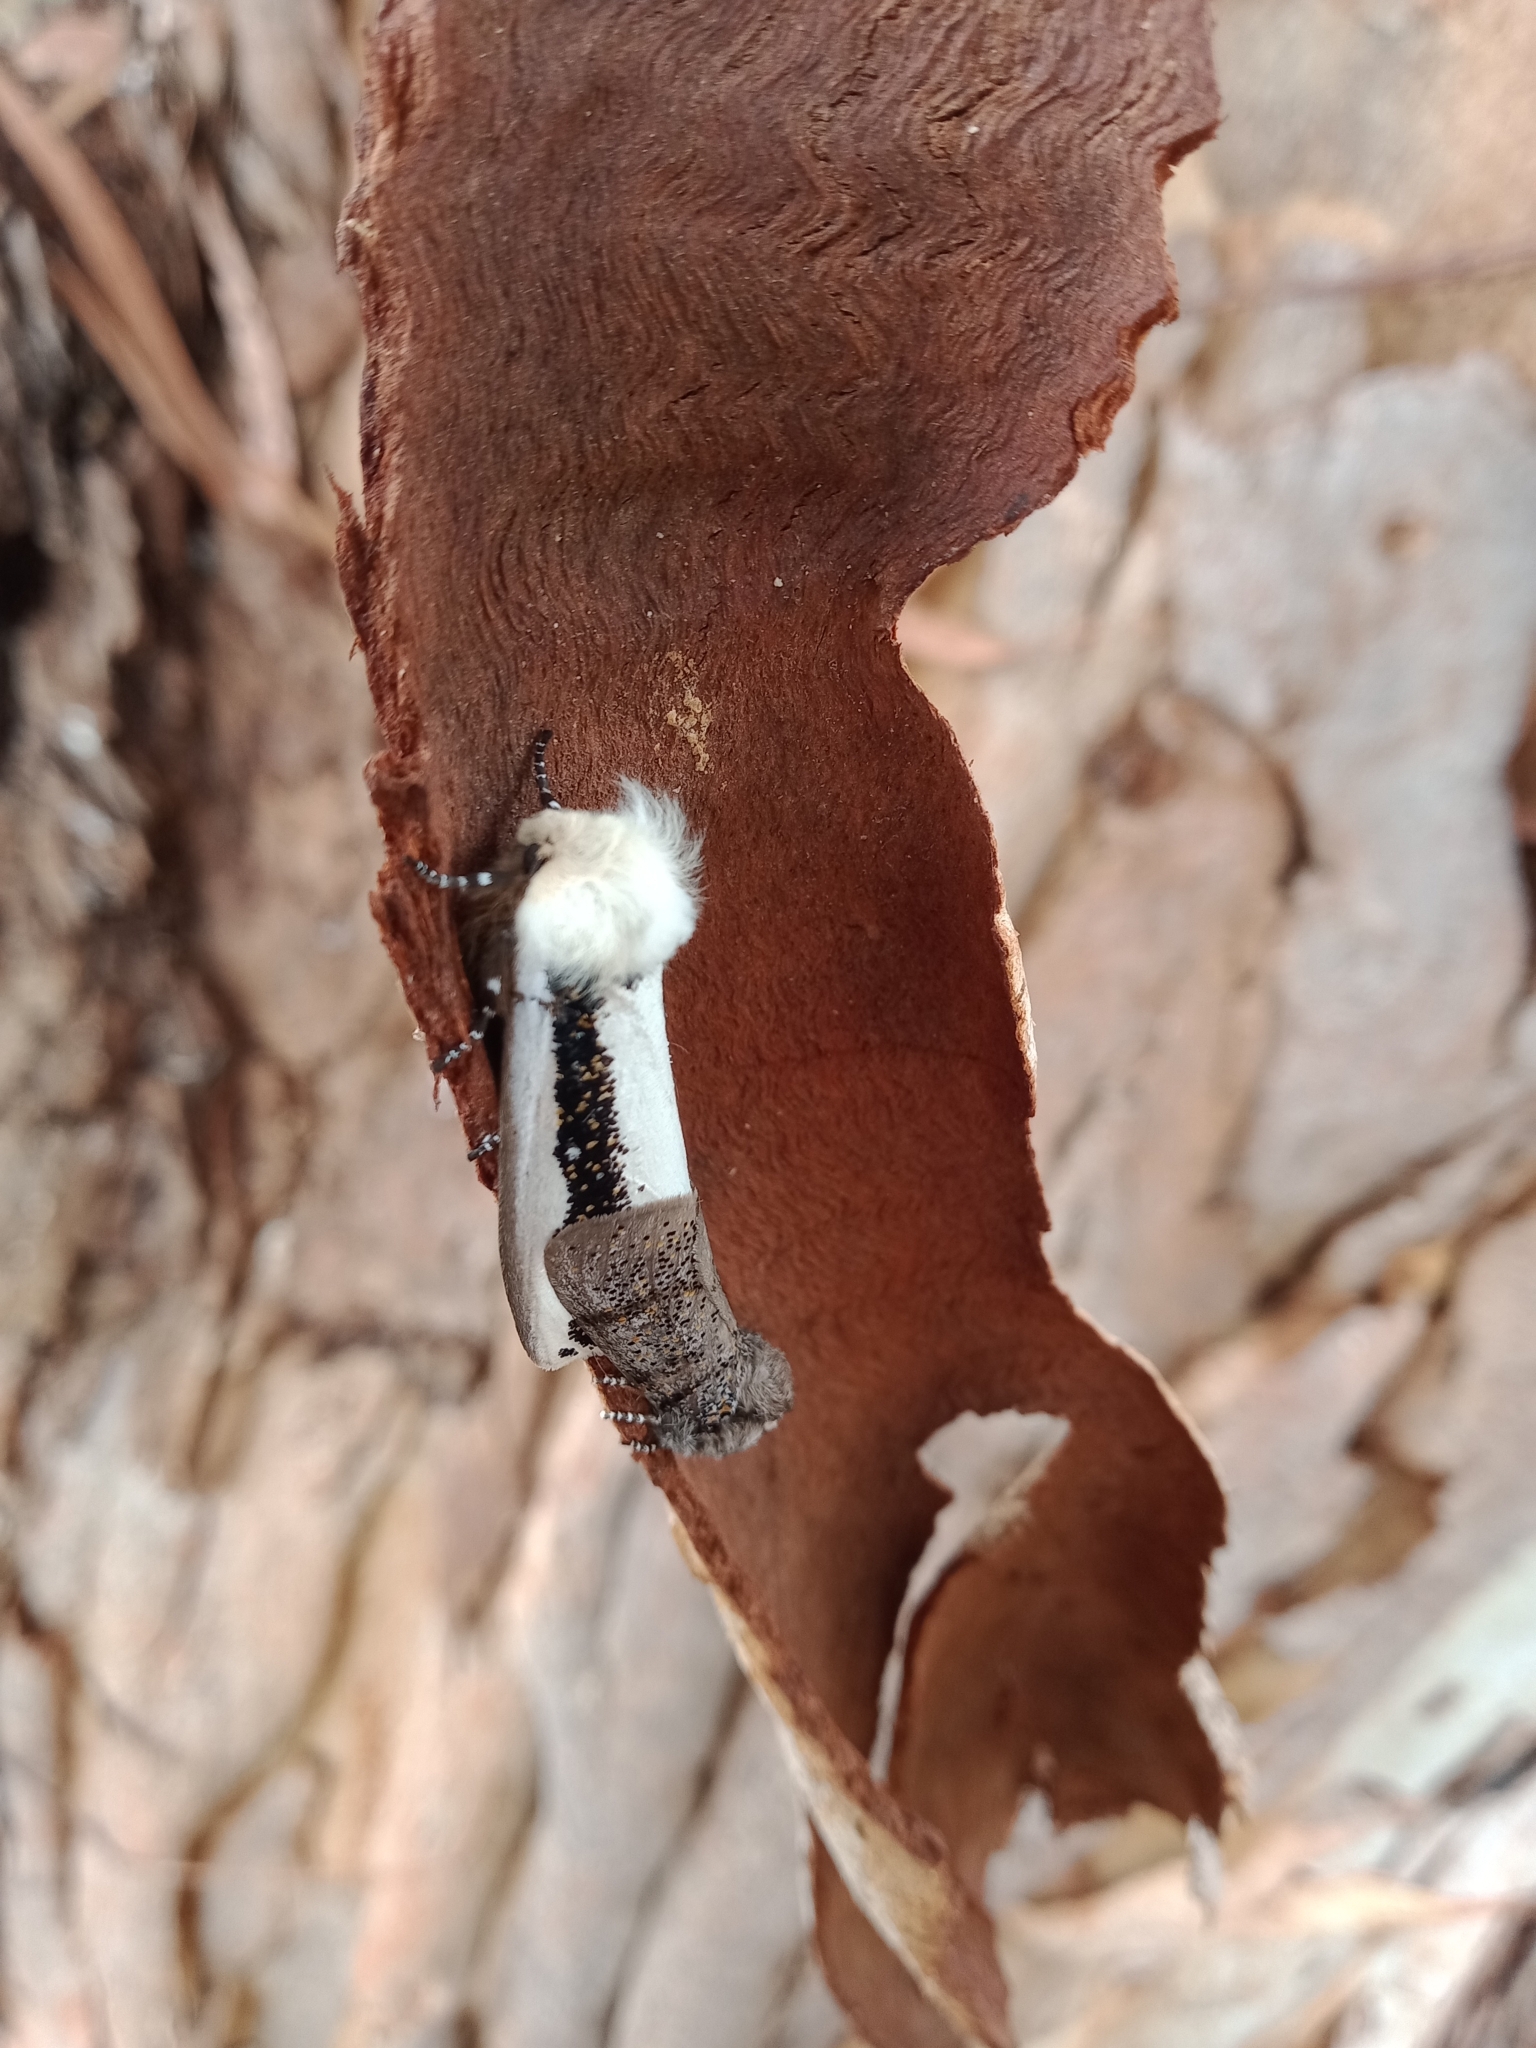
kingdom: Animalia
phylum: Arthropoda
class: Insecta
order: Lepidoptera
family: Oenosandridae
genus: Oenosandra
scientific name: Oenosandra boisduvalii
